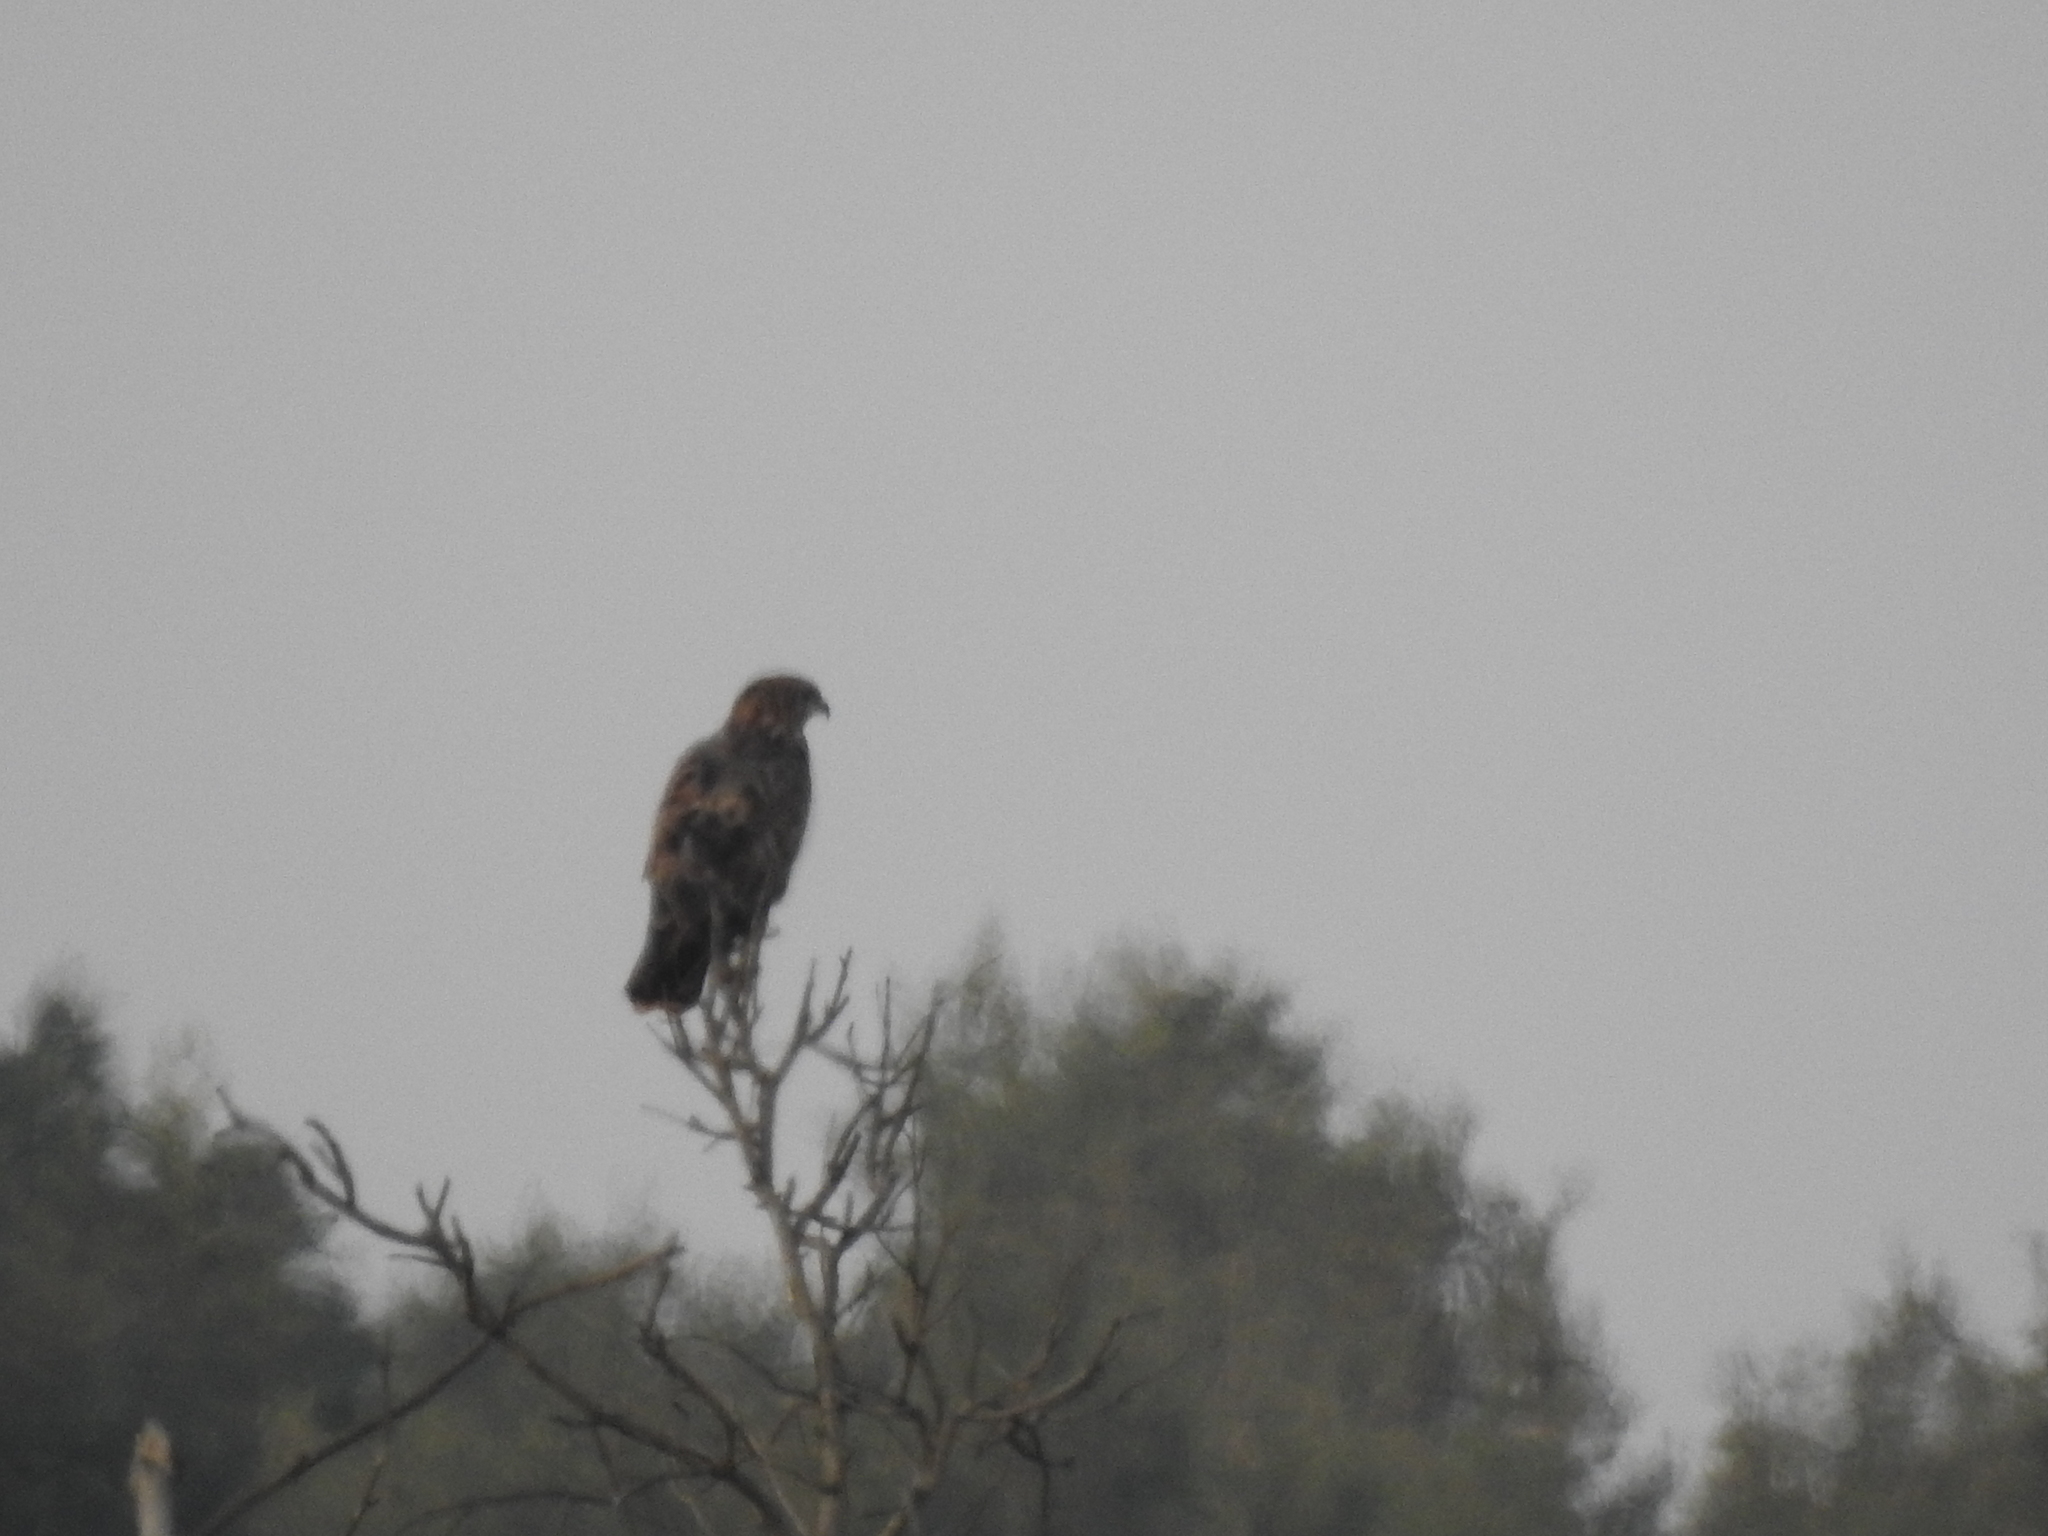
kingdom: Animalia
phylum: Chordata
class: Aves
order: Accipitriformes
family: Accipitridae
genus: Buteo
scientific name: Buteo buteo
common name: Common buzzard
